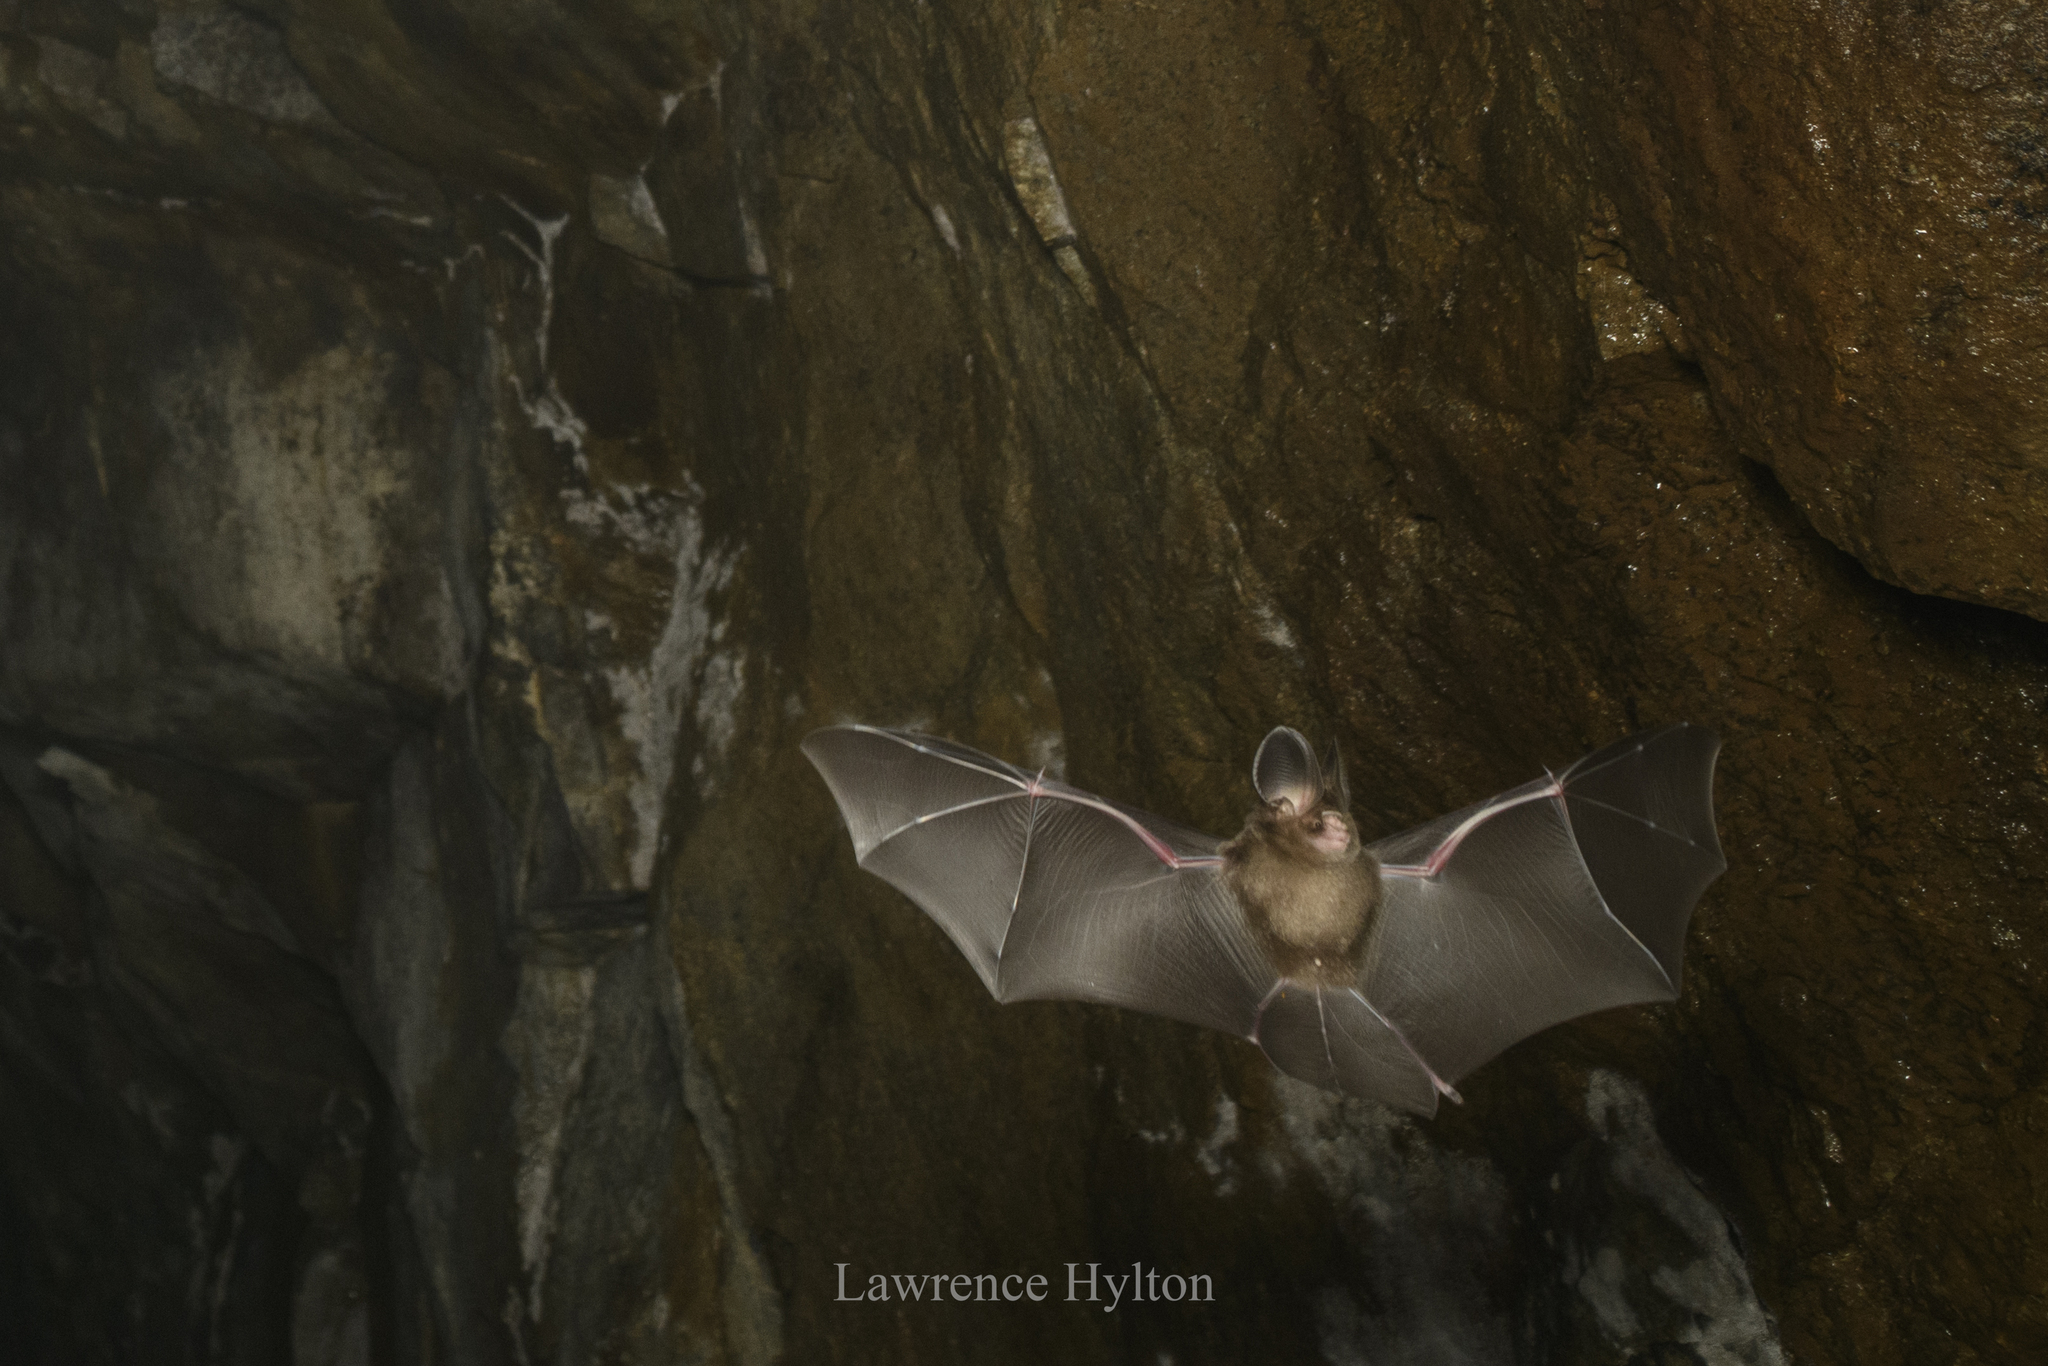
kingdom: Animalia
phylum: Chordata
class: Mammalia
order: Chiroptera
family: Hipposideridae
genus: Hipposideros
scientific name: Hipposideros gentilis
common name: Andersen's leaf-nosed bat
